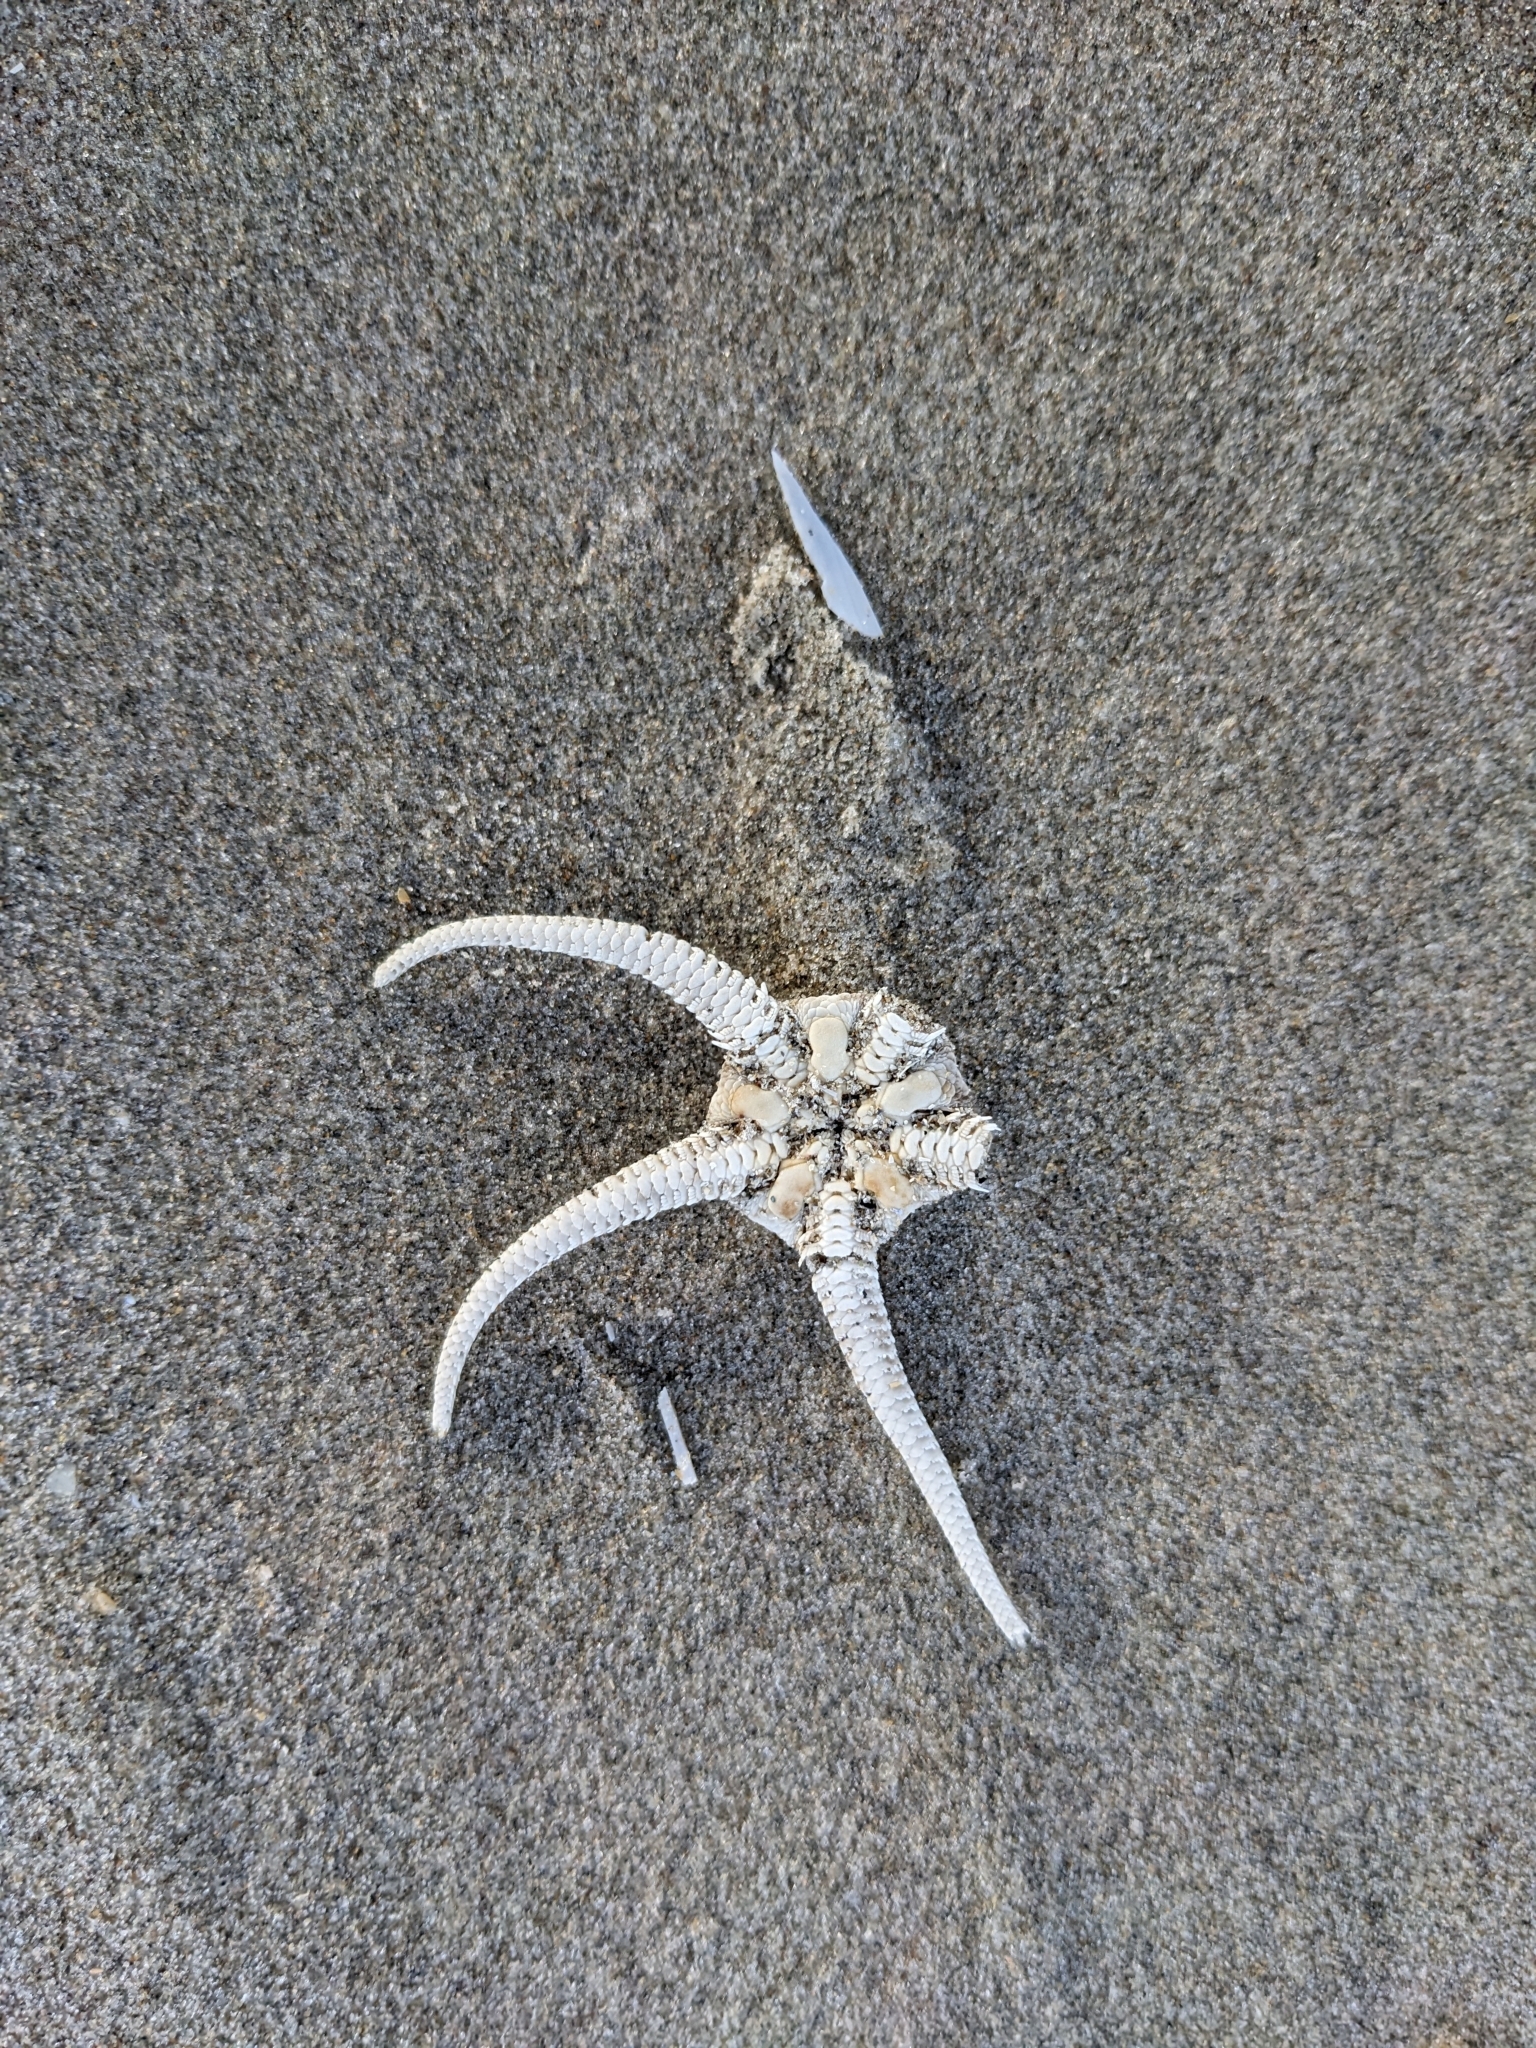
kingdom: Animalia
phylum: Echinodermata
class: Ophiuroidea
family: Ophiuridae
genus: Ophiura
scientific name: Ophiura ophiura
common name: Serpent star
